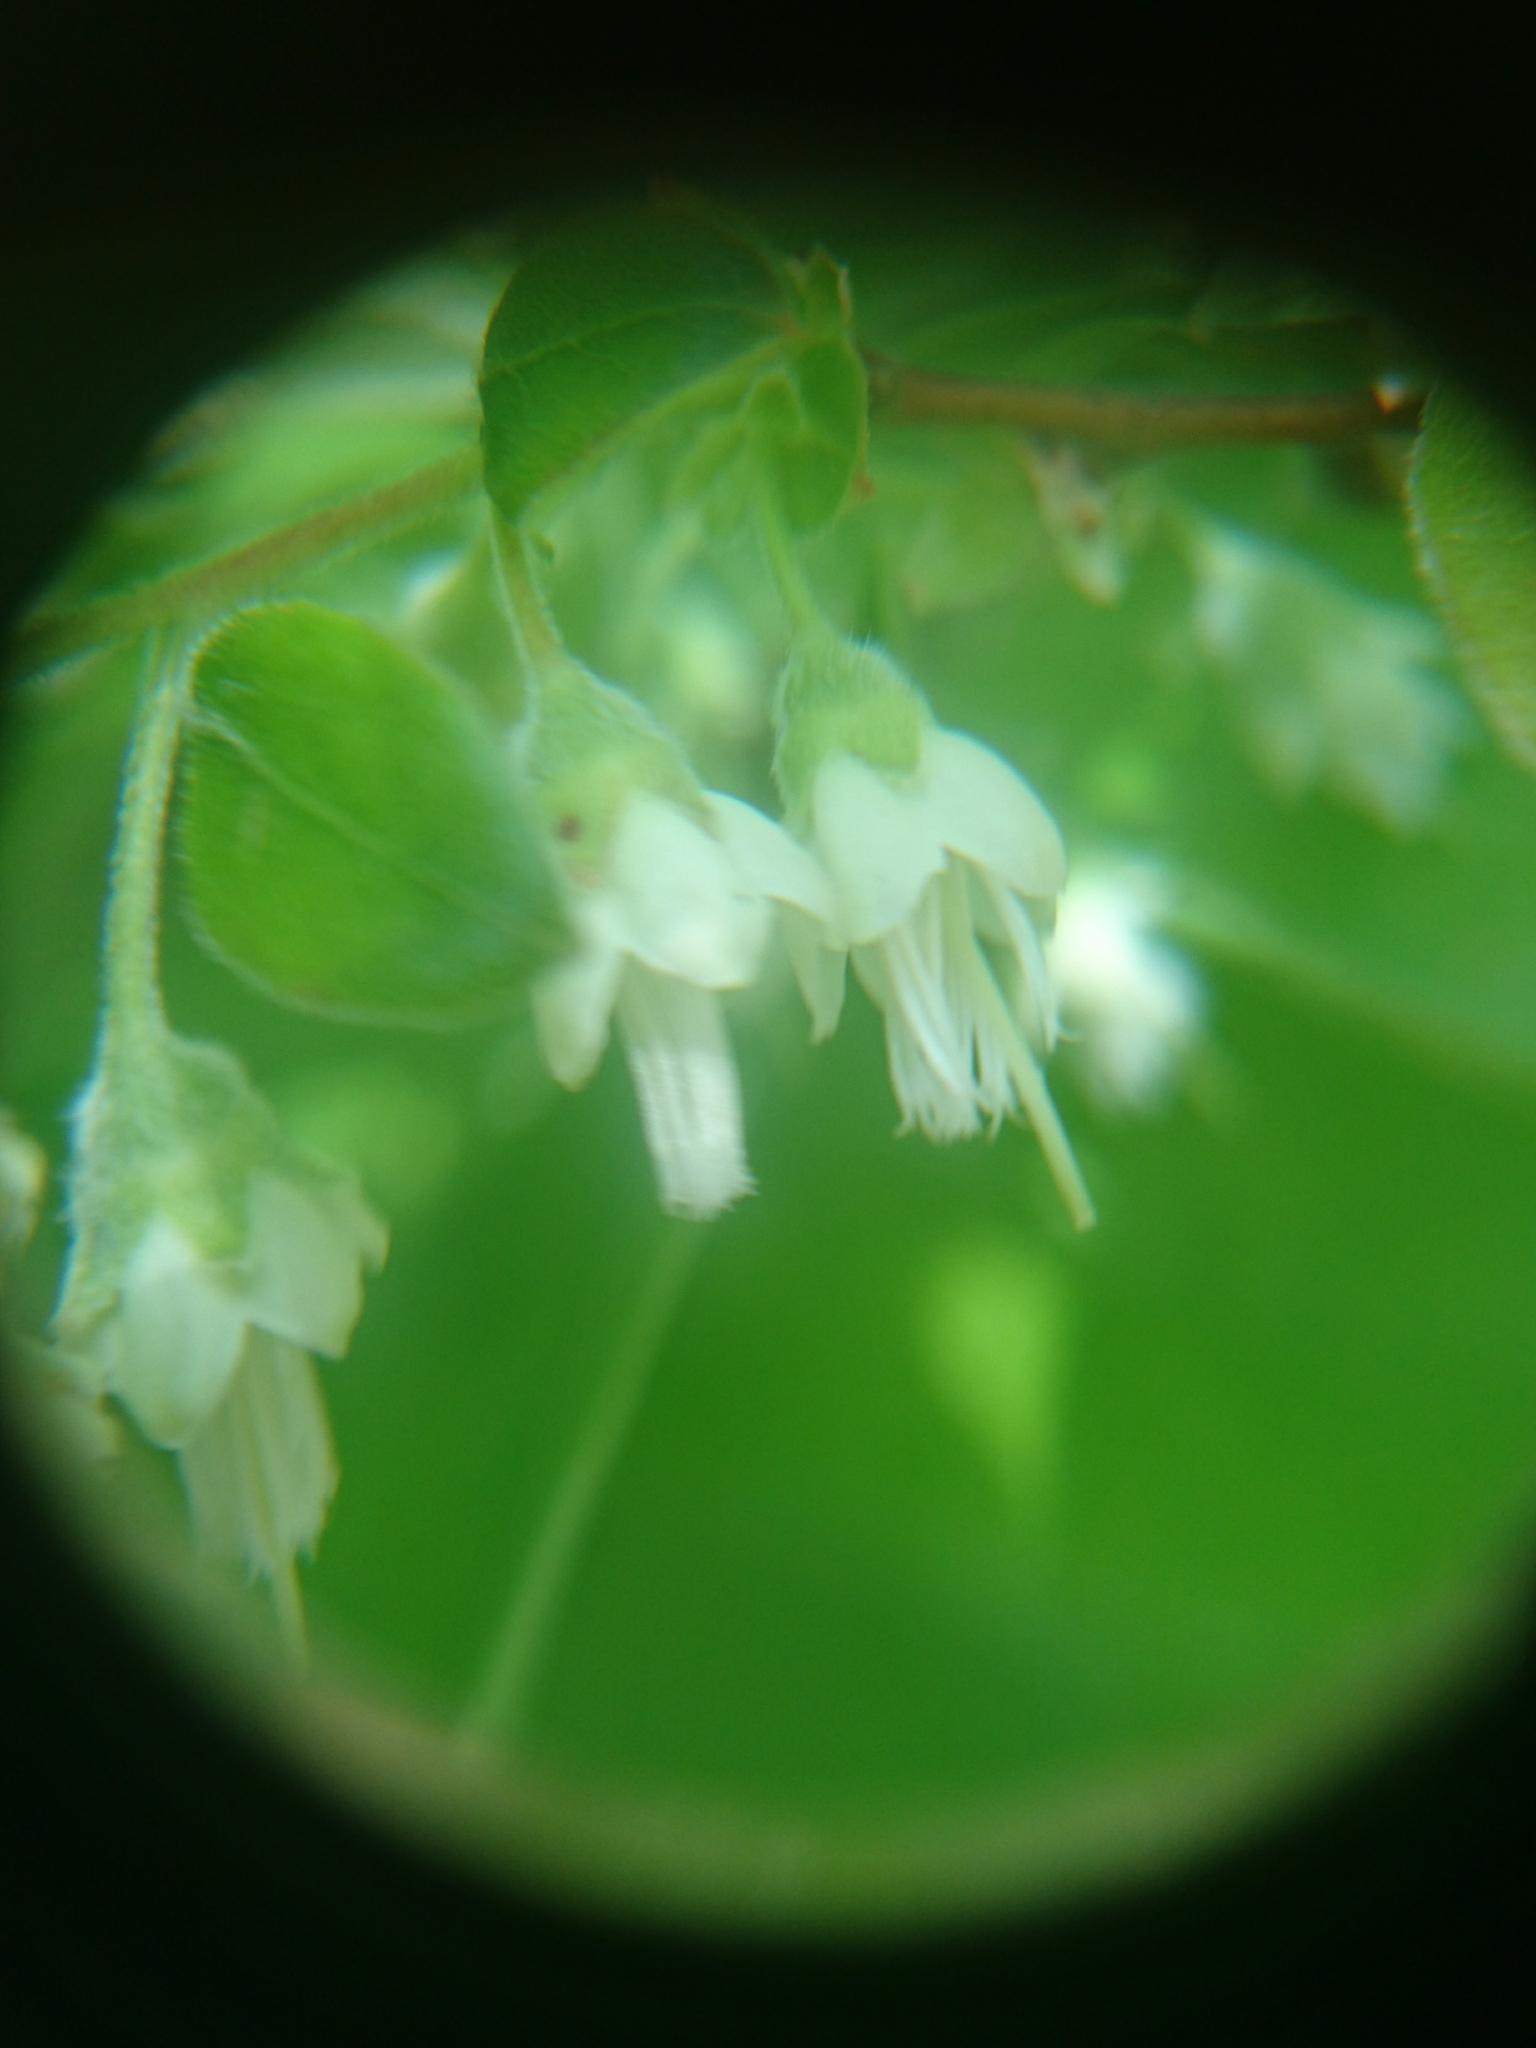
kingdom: Plantae
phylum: Tracheophyta
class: Magnoliopsida
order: Ericales
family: Ericaceae
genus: Vaccinium
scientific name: Vaccinium stamineum
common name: Deerberry
